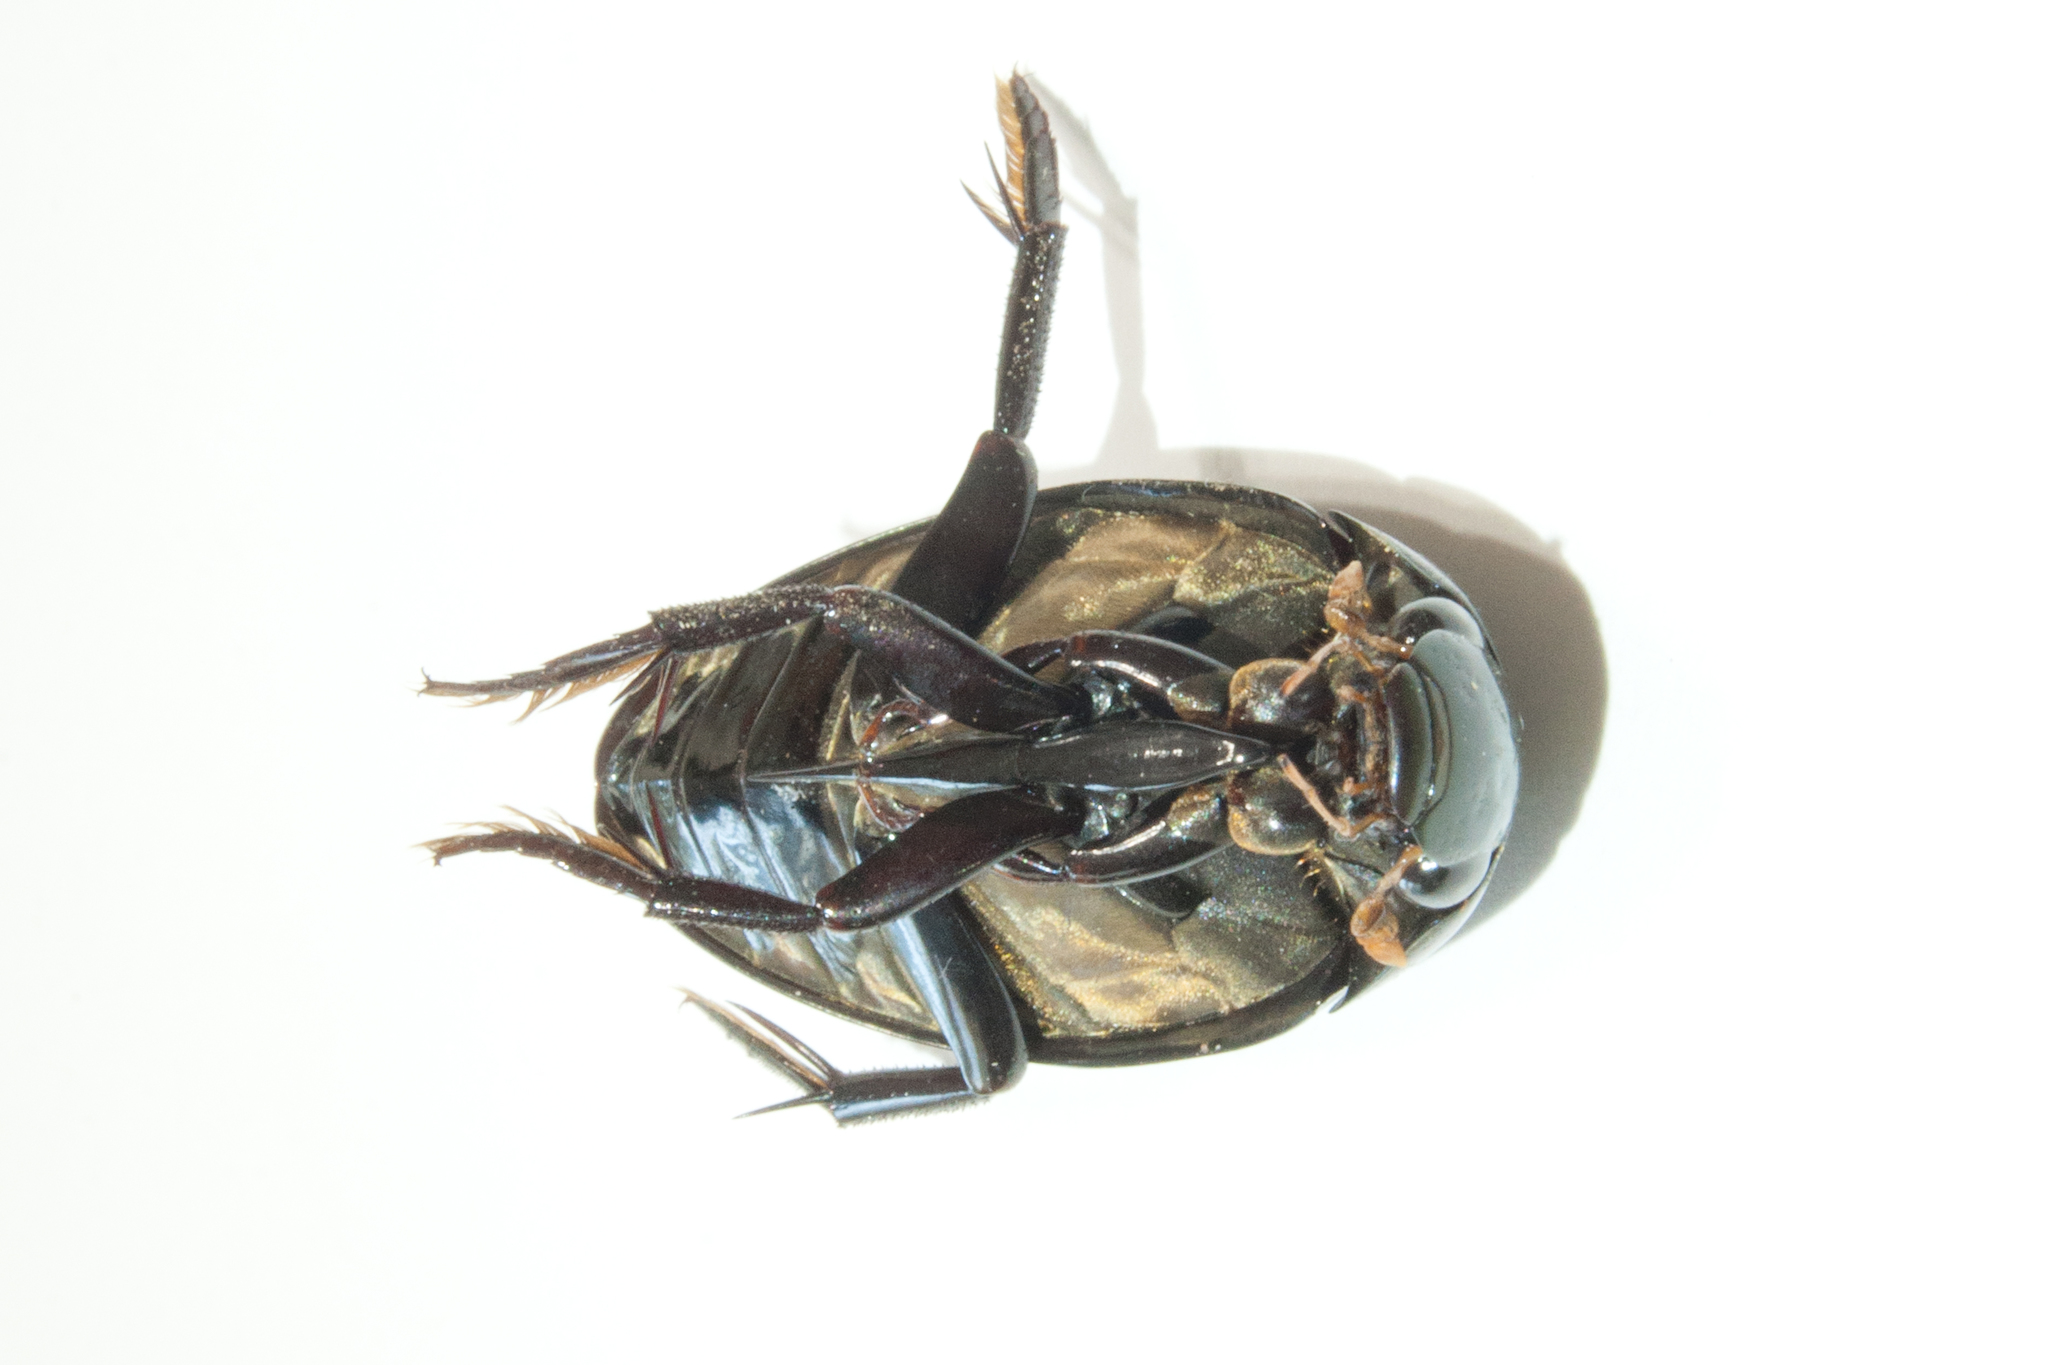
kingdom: Animalia
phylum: Arthropoda
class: Insecta
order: Coleoptera
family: Hydrophilidae
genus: Hydrophilus
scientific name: Hydrophilus triangularis
